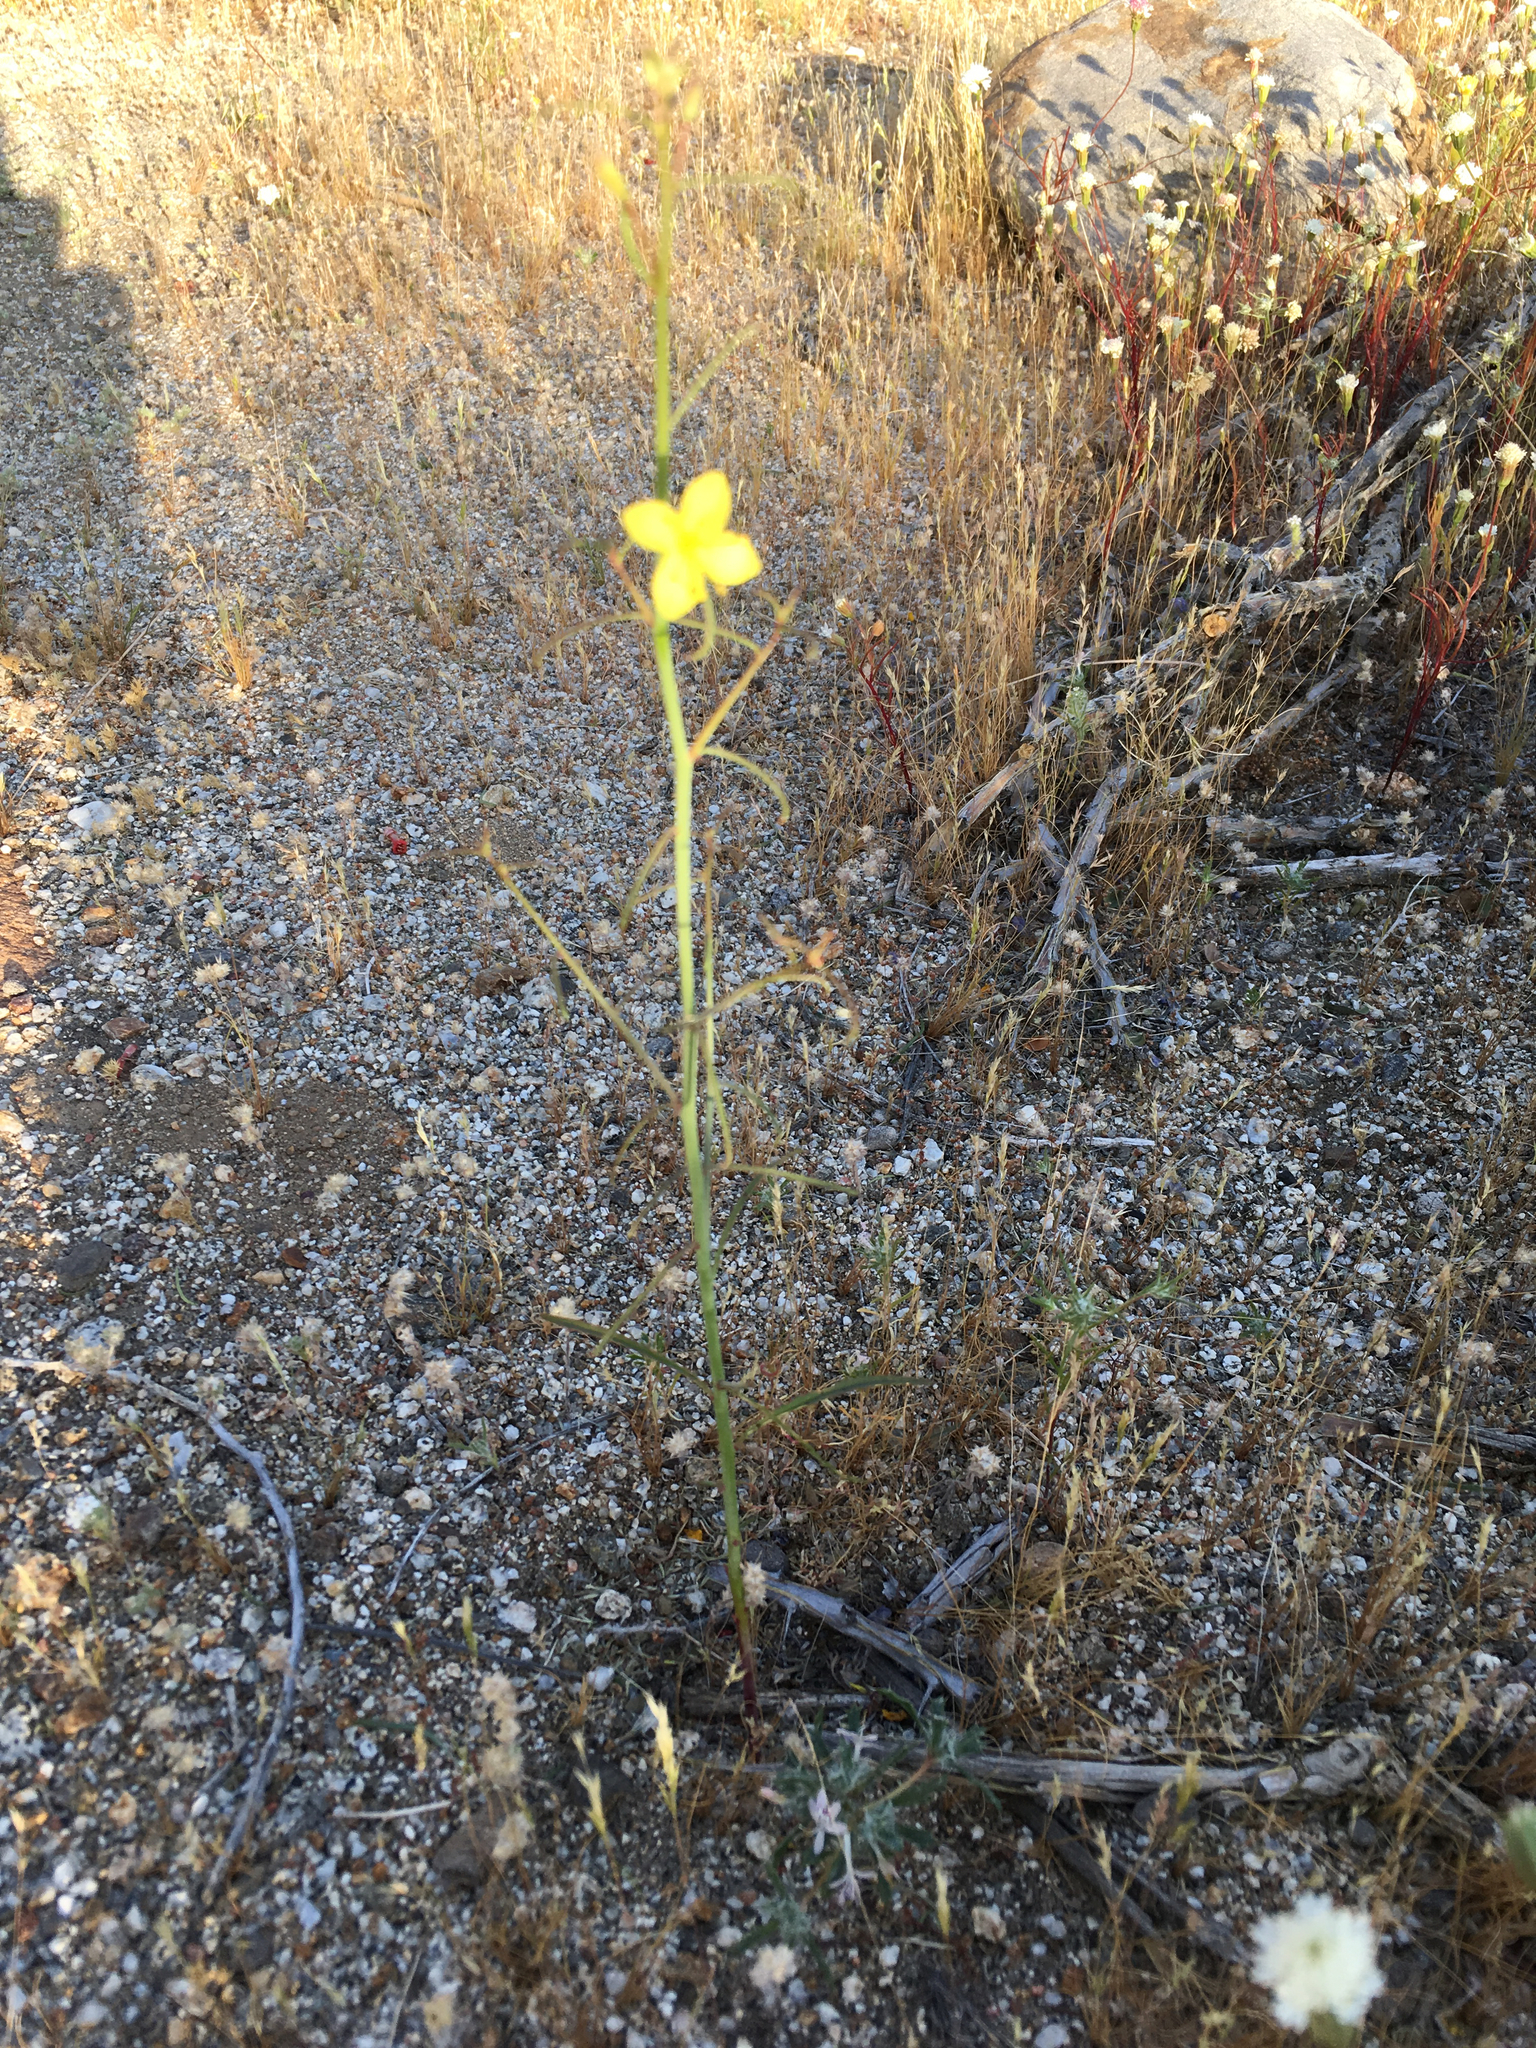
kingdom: Plantae
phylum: Tracheophyta
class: Magnoliopsida
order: Myrtales
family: Onagraceae
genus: Eulobus
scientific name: Eulobus californicus
